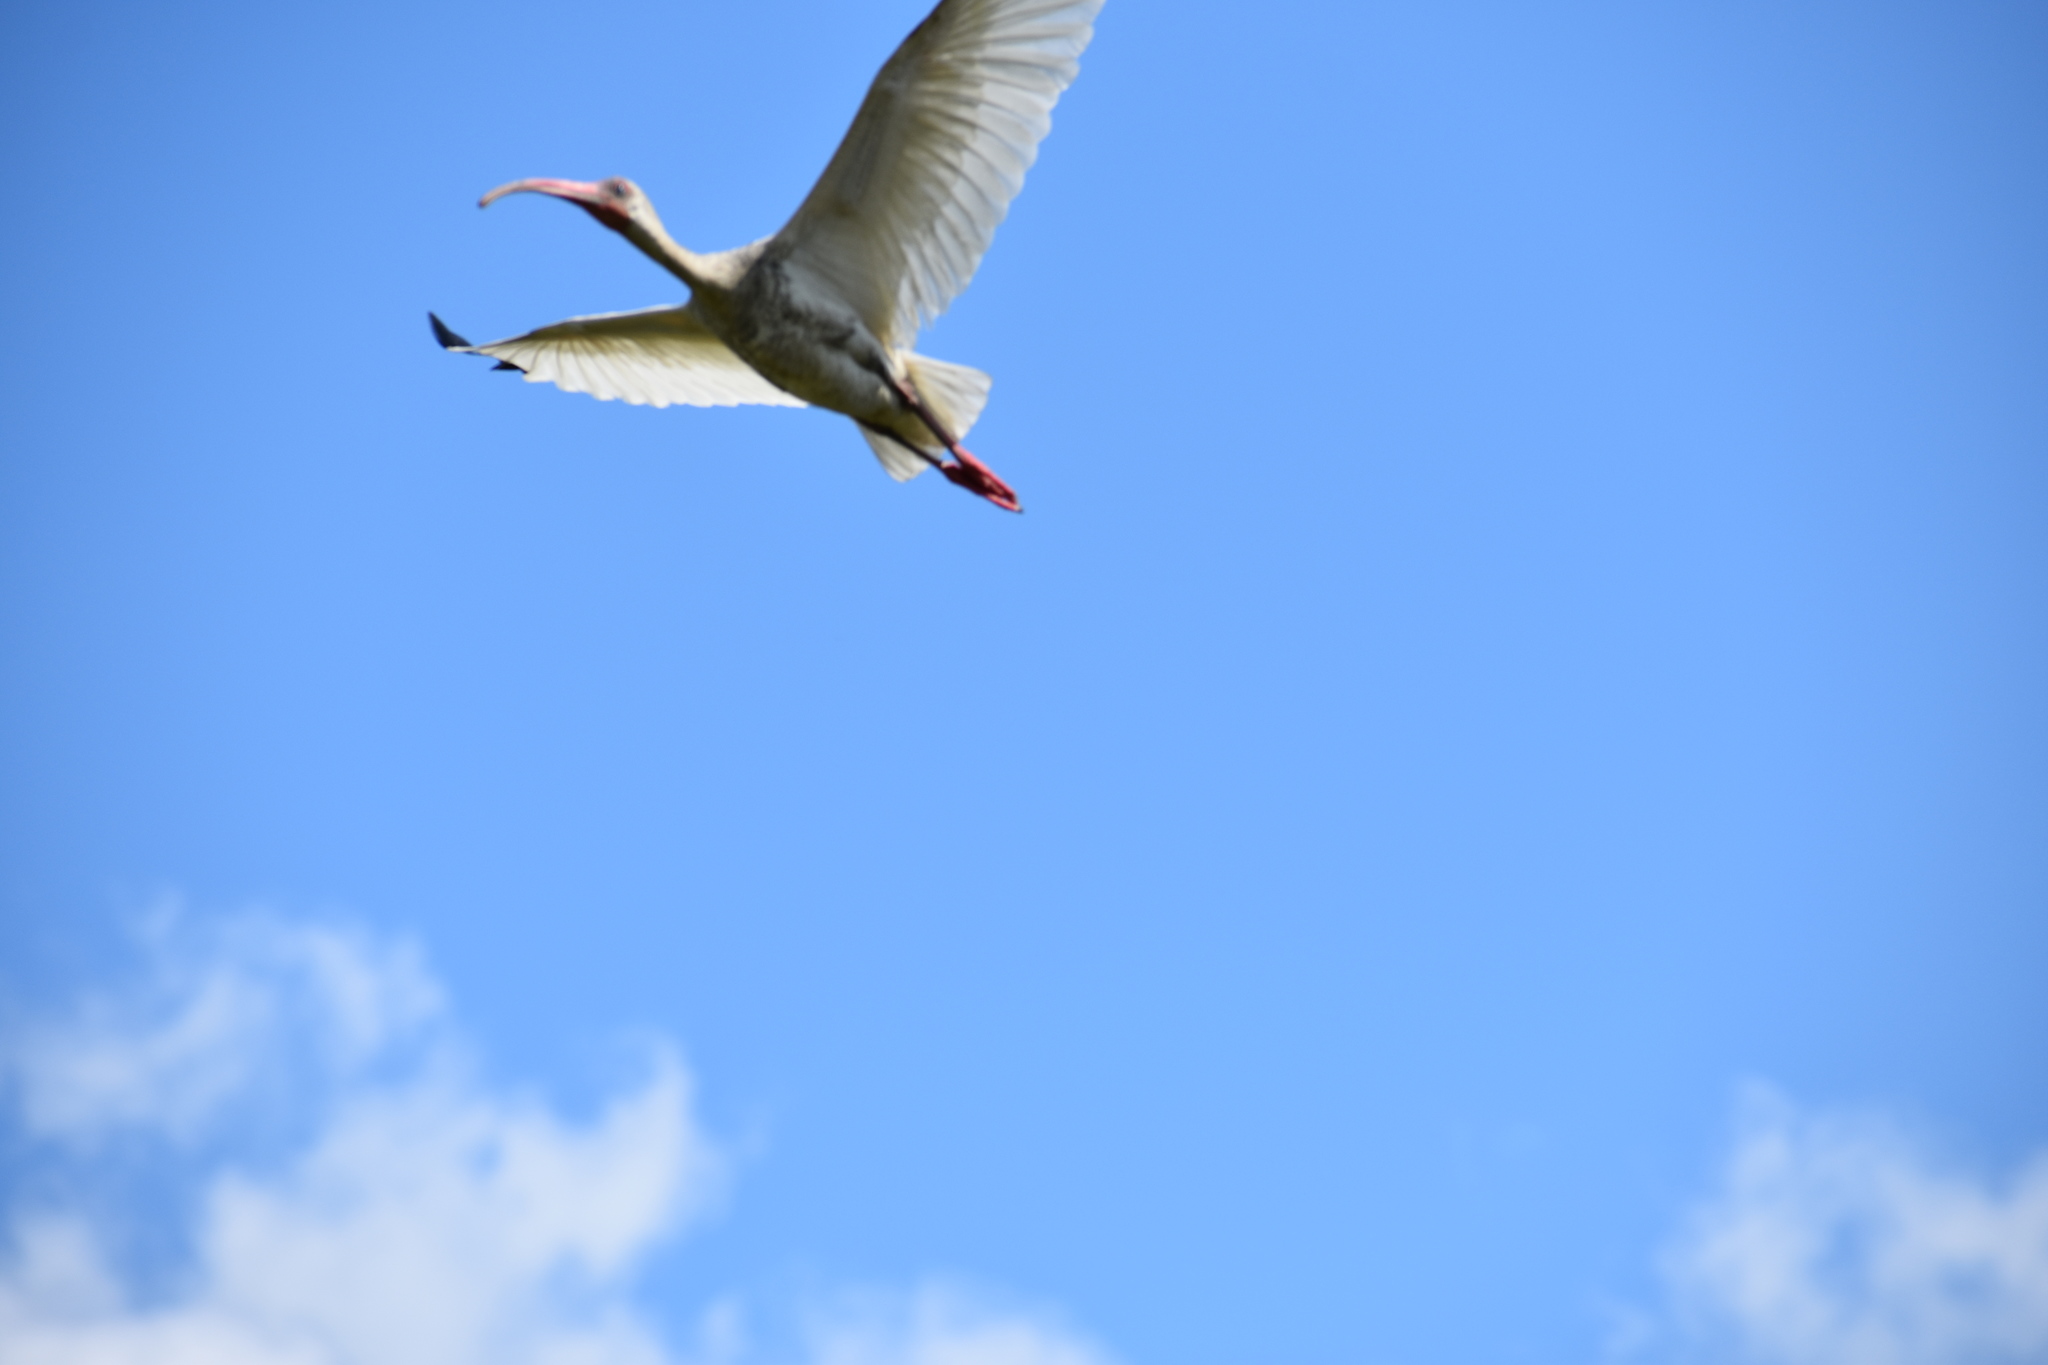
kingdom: Animalia
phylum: Chordata
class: Aves
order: Pelecaniformes
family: Threskiornithidae
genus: Eudocimus
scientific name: Eudocimus albus
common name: White ibis
